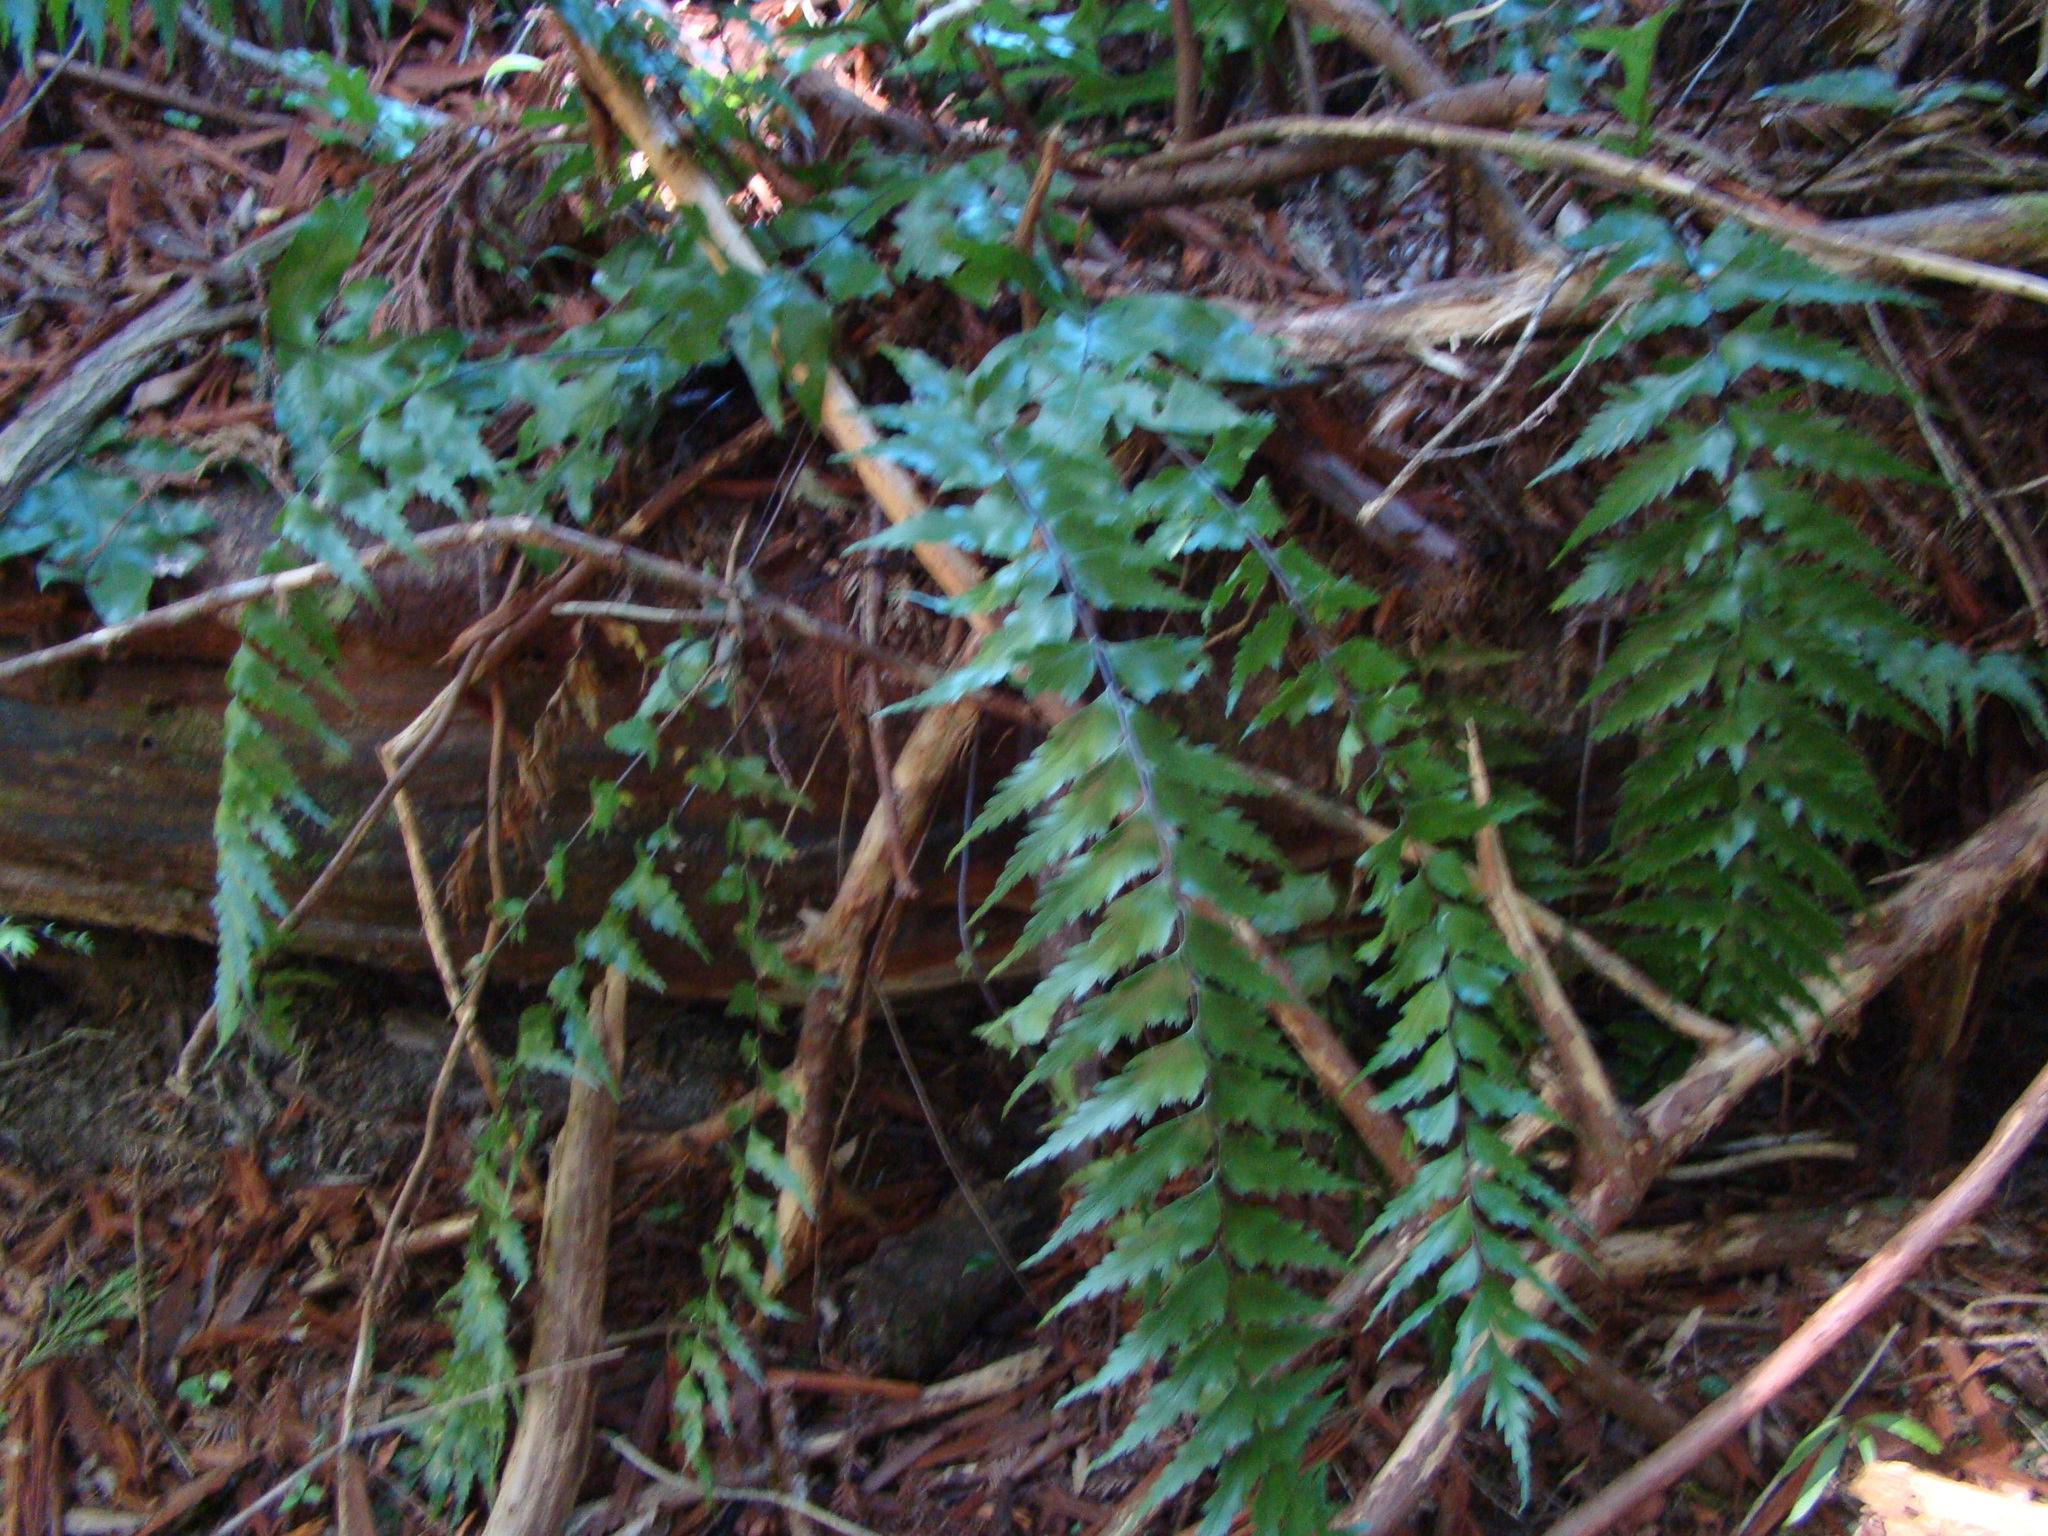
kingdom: Plantae
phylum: Tracheophyta
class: Polypodiopsida
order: Polypodiales
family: Aspleniaceae
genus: Asplenium
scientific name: Asplenium polyodon
